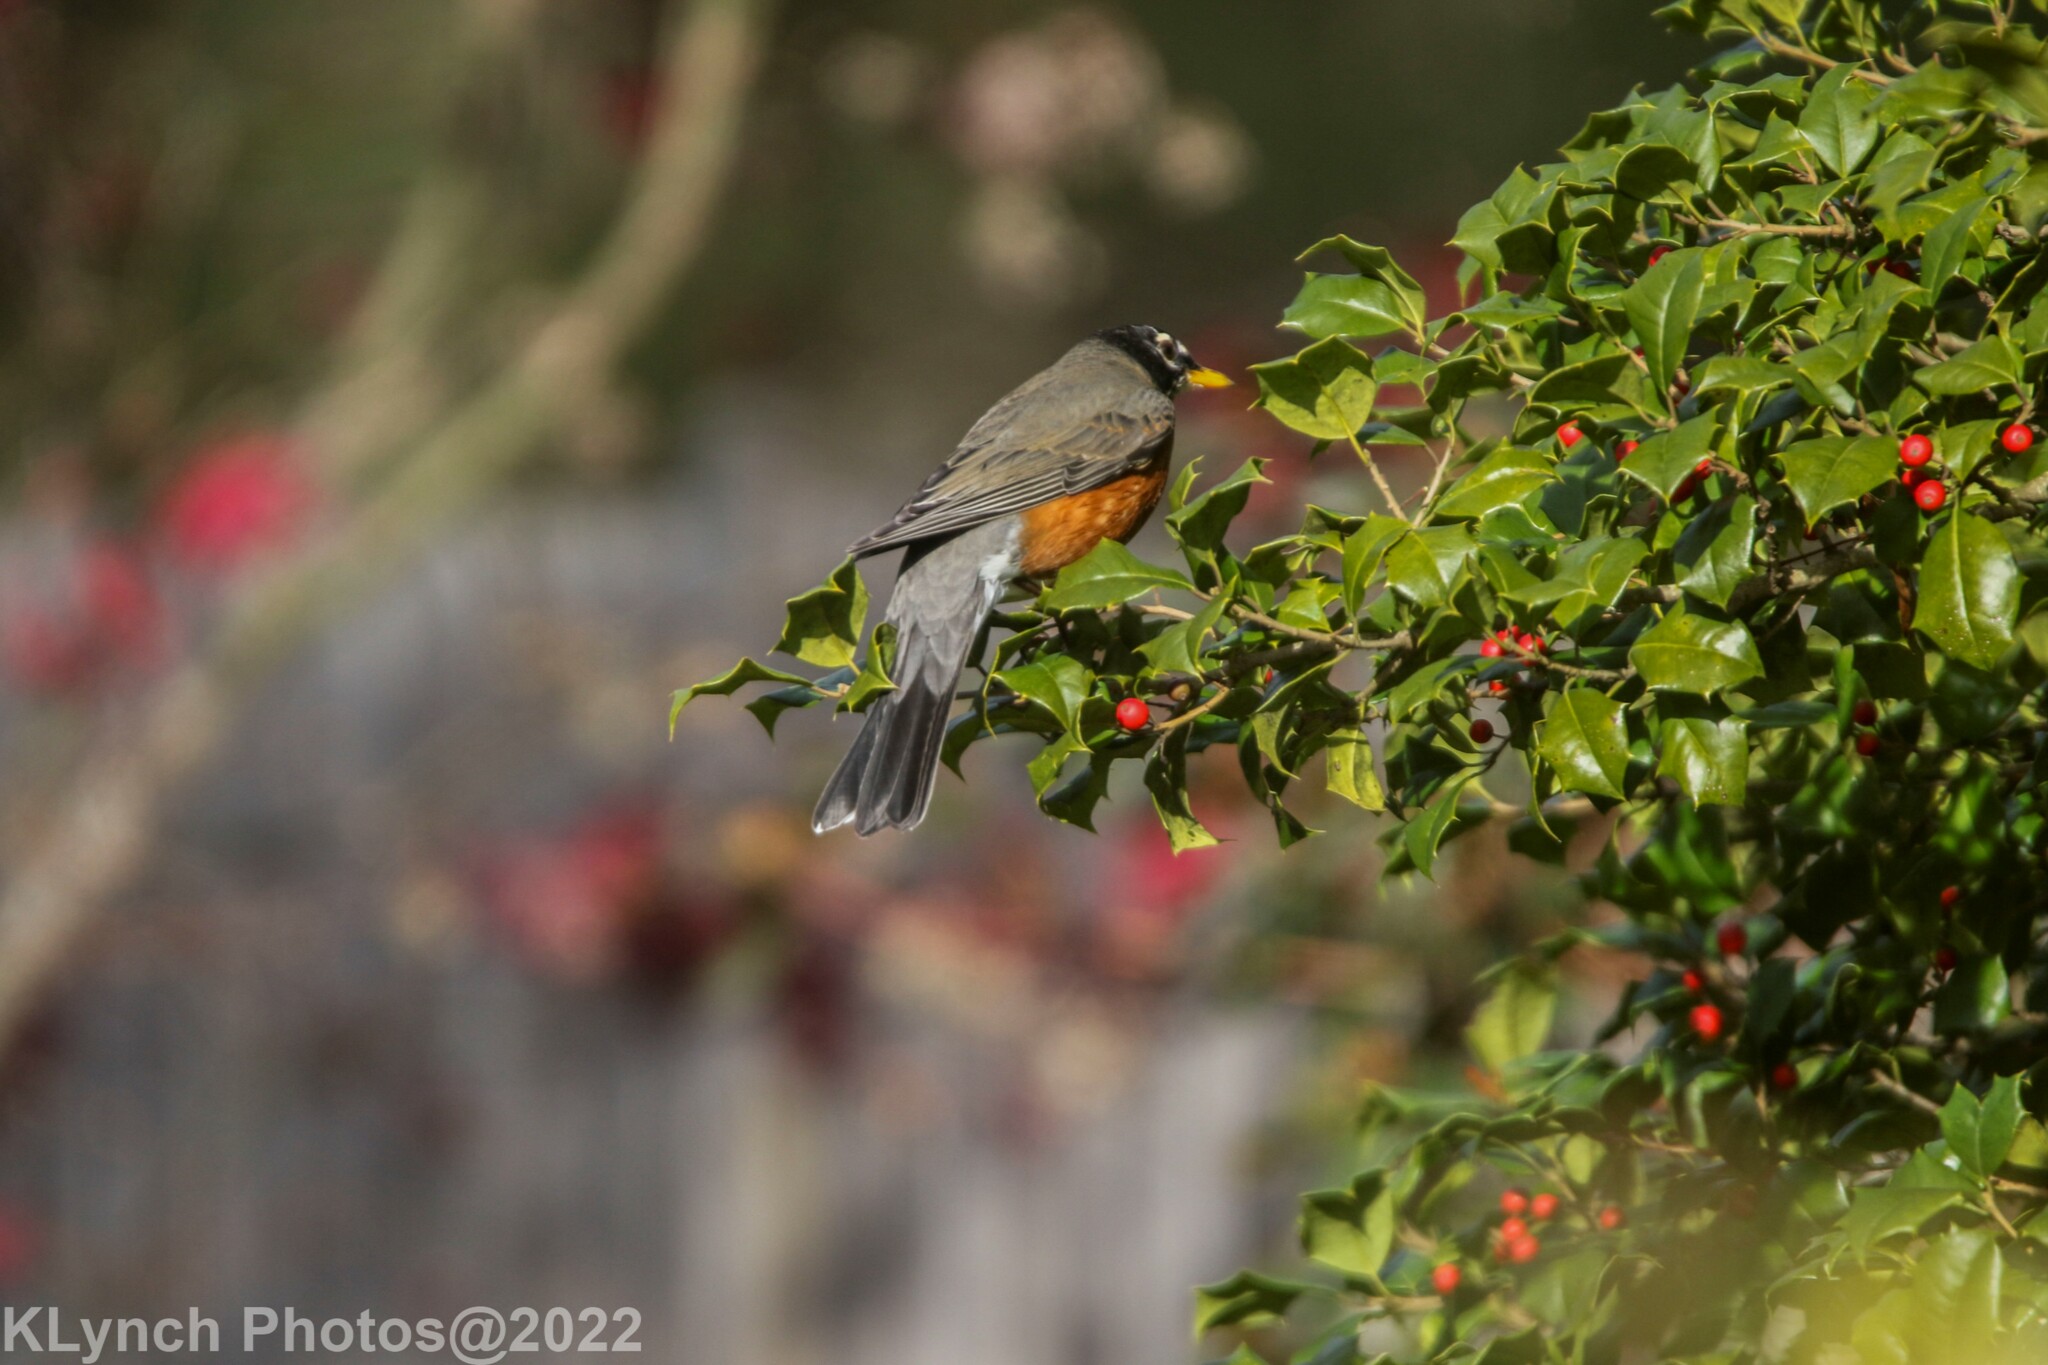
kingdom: Animalia
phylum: Chordata
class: Aves
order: Passeriformes
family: Turdidae
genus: Turdus
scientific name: Turdus migratorius
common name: American robin
